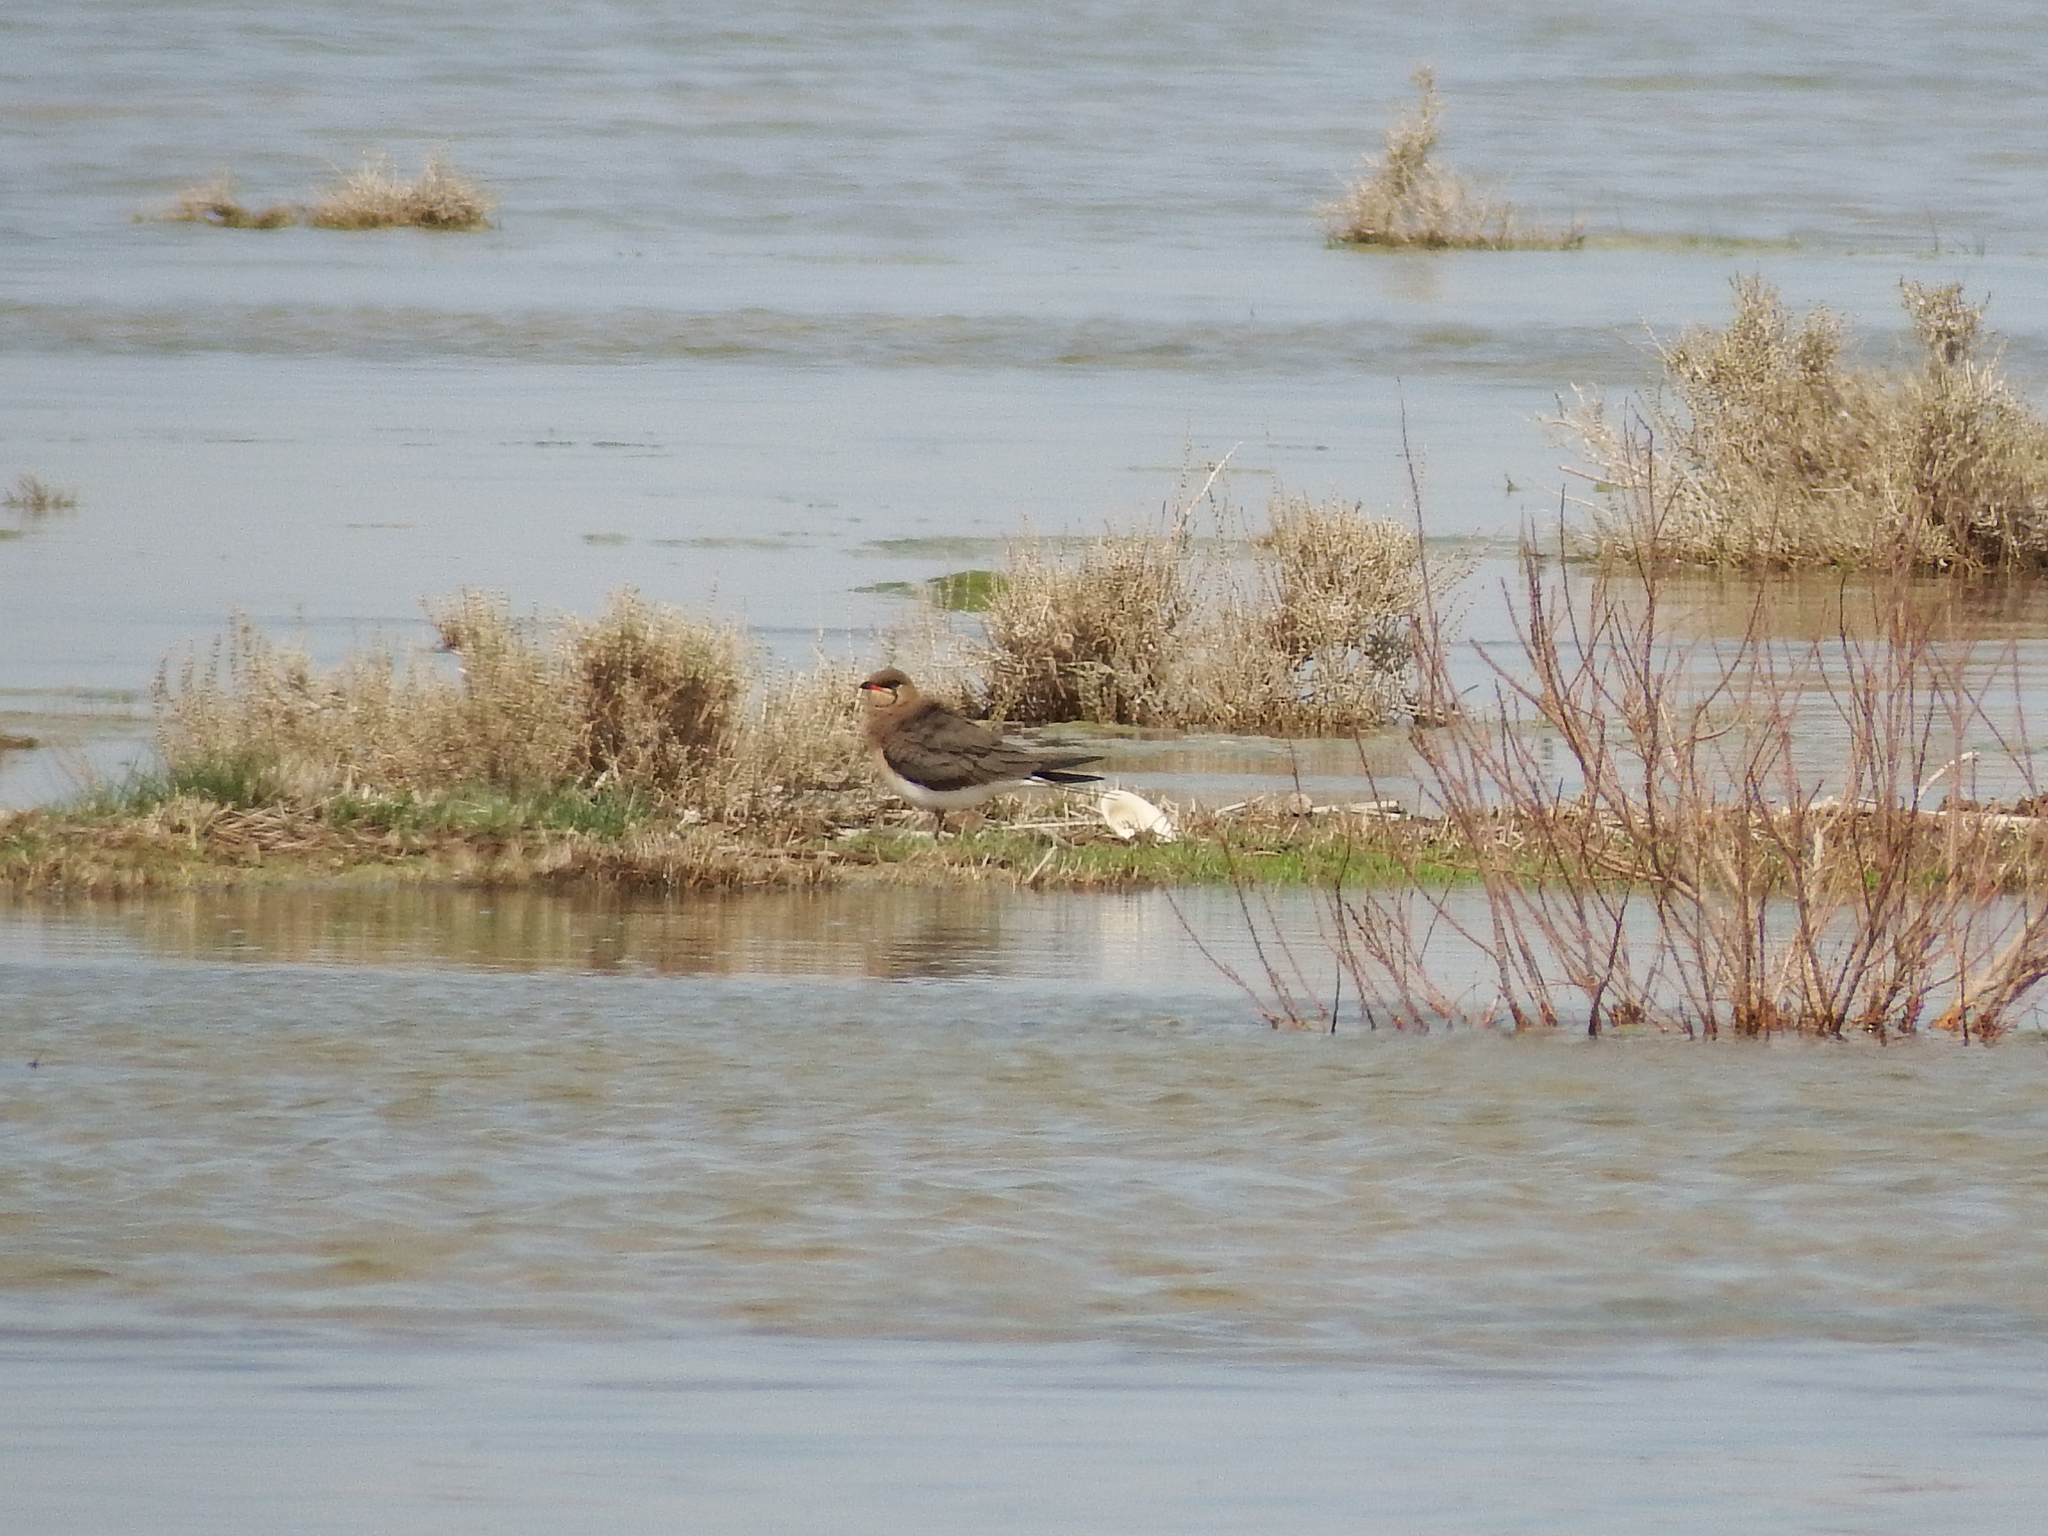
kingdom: Animalia
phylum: Chordata
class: Aves
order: Charadriiformes
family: Glareolidae
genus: Glareola
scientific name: Glareola pratincola
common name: Collared pratincole
